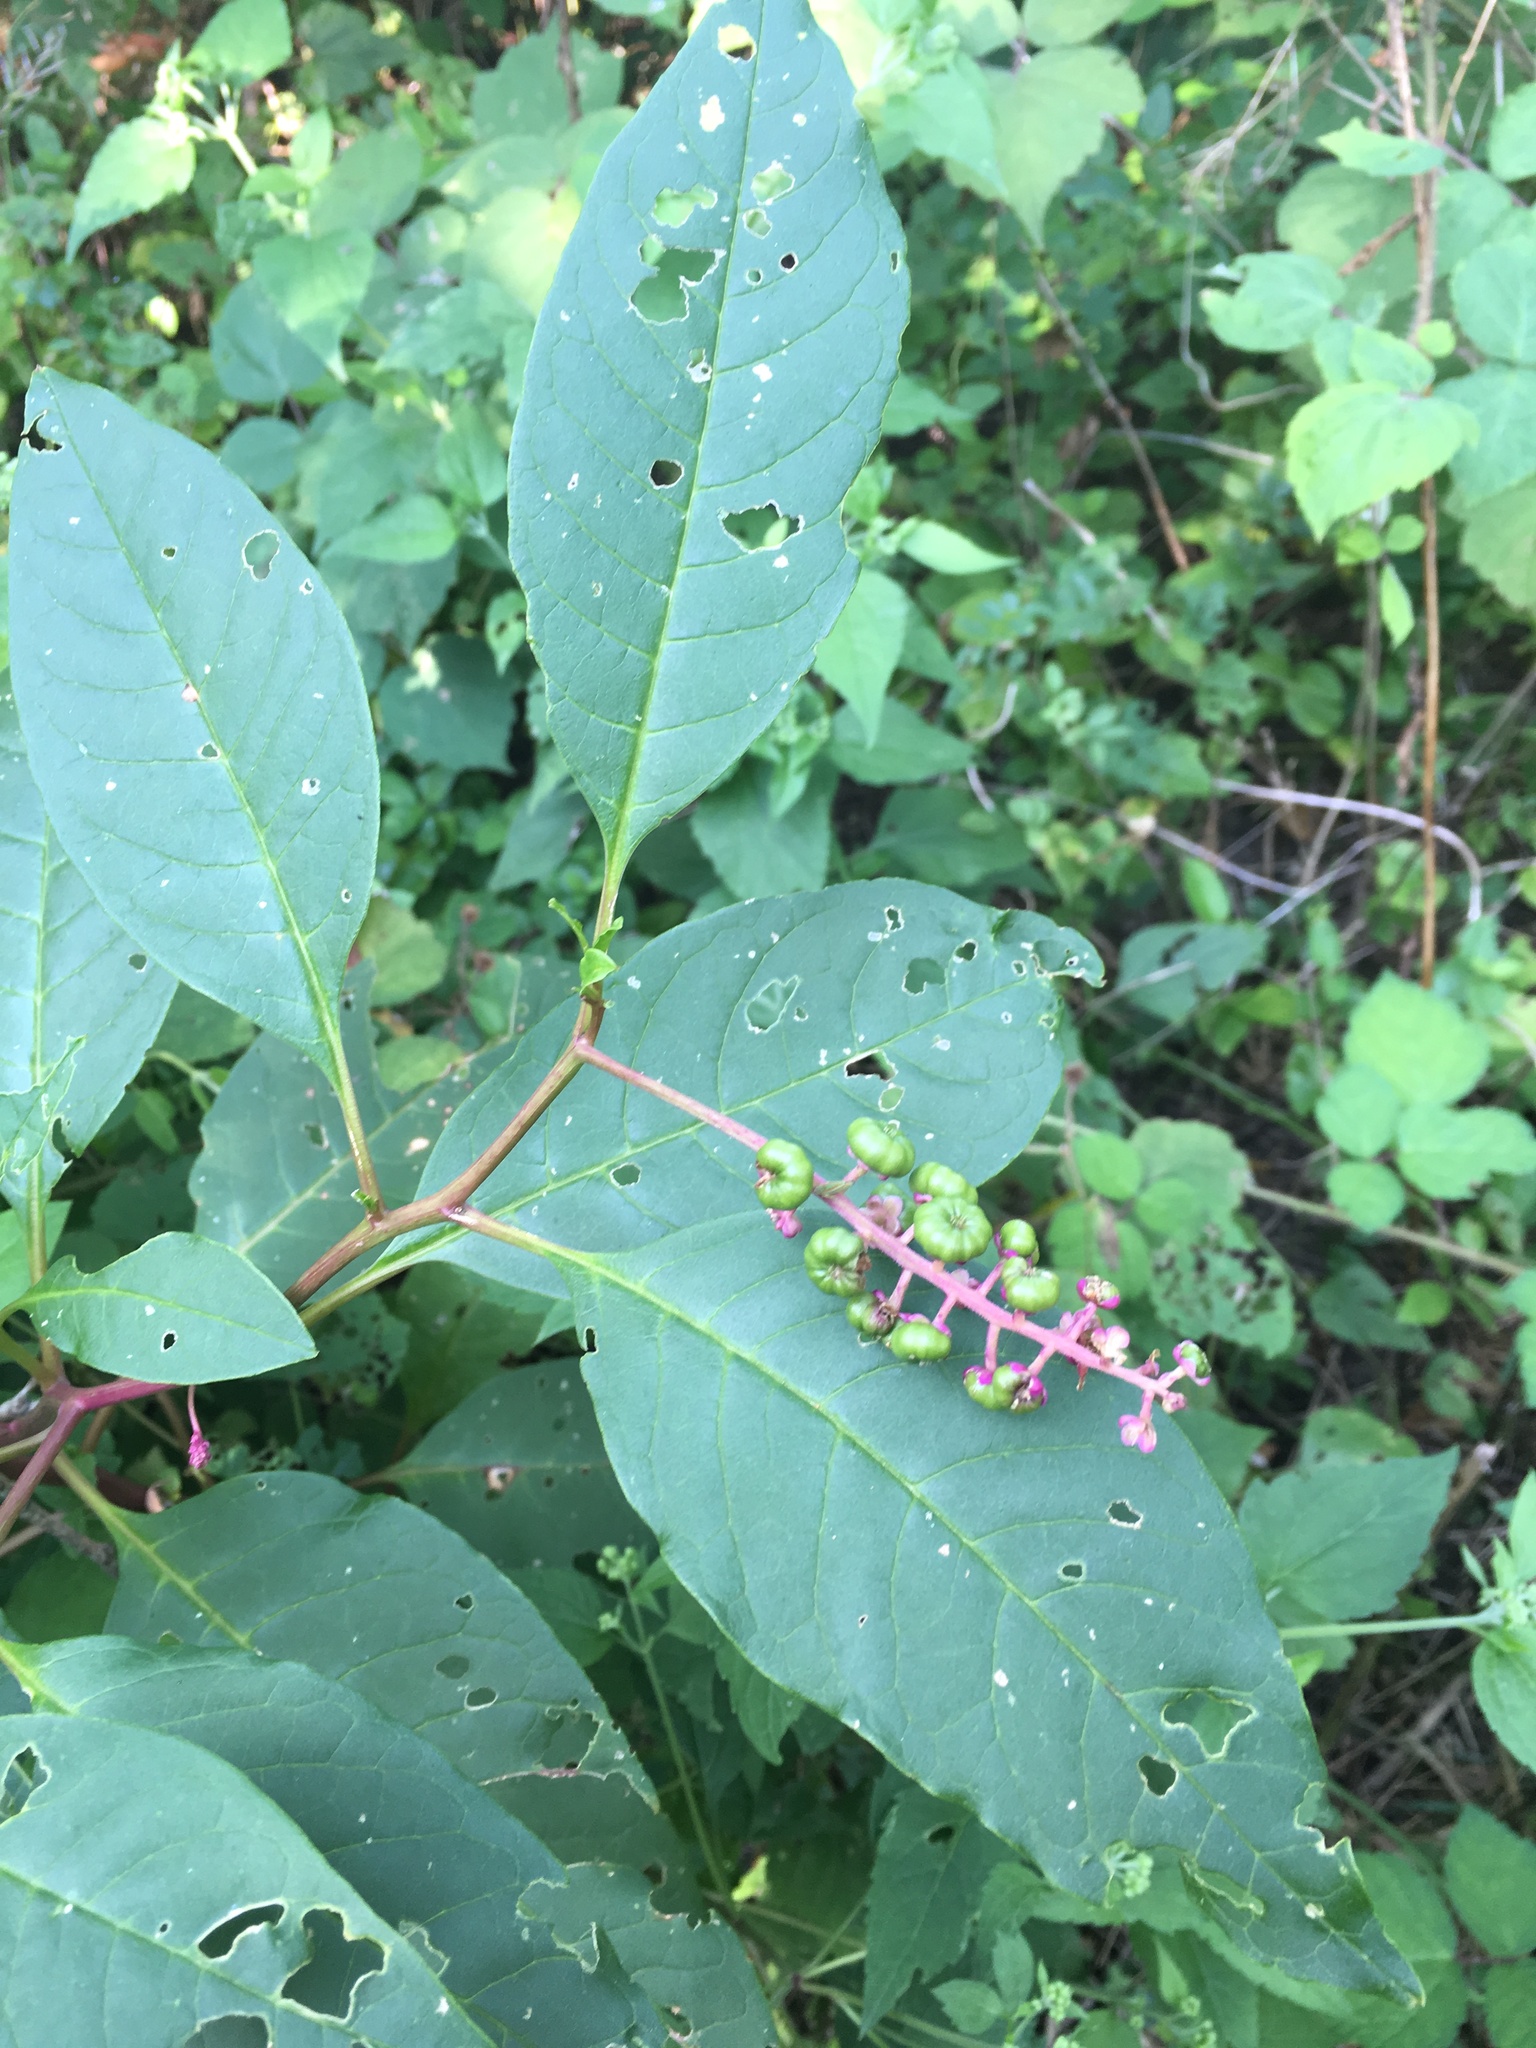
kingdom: Plantae
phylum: Tracheophyta
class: Magnoliopsida
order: Caryophyllales
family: Phytolaccaceae
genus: Phytolacca
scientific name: Phytolacca americana
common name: American pokeweed
